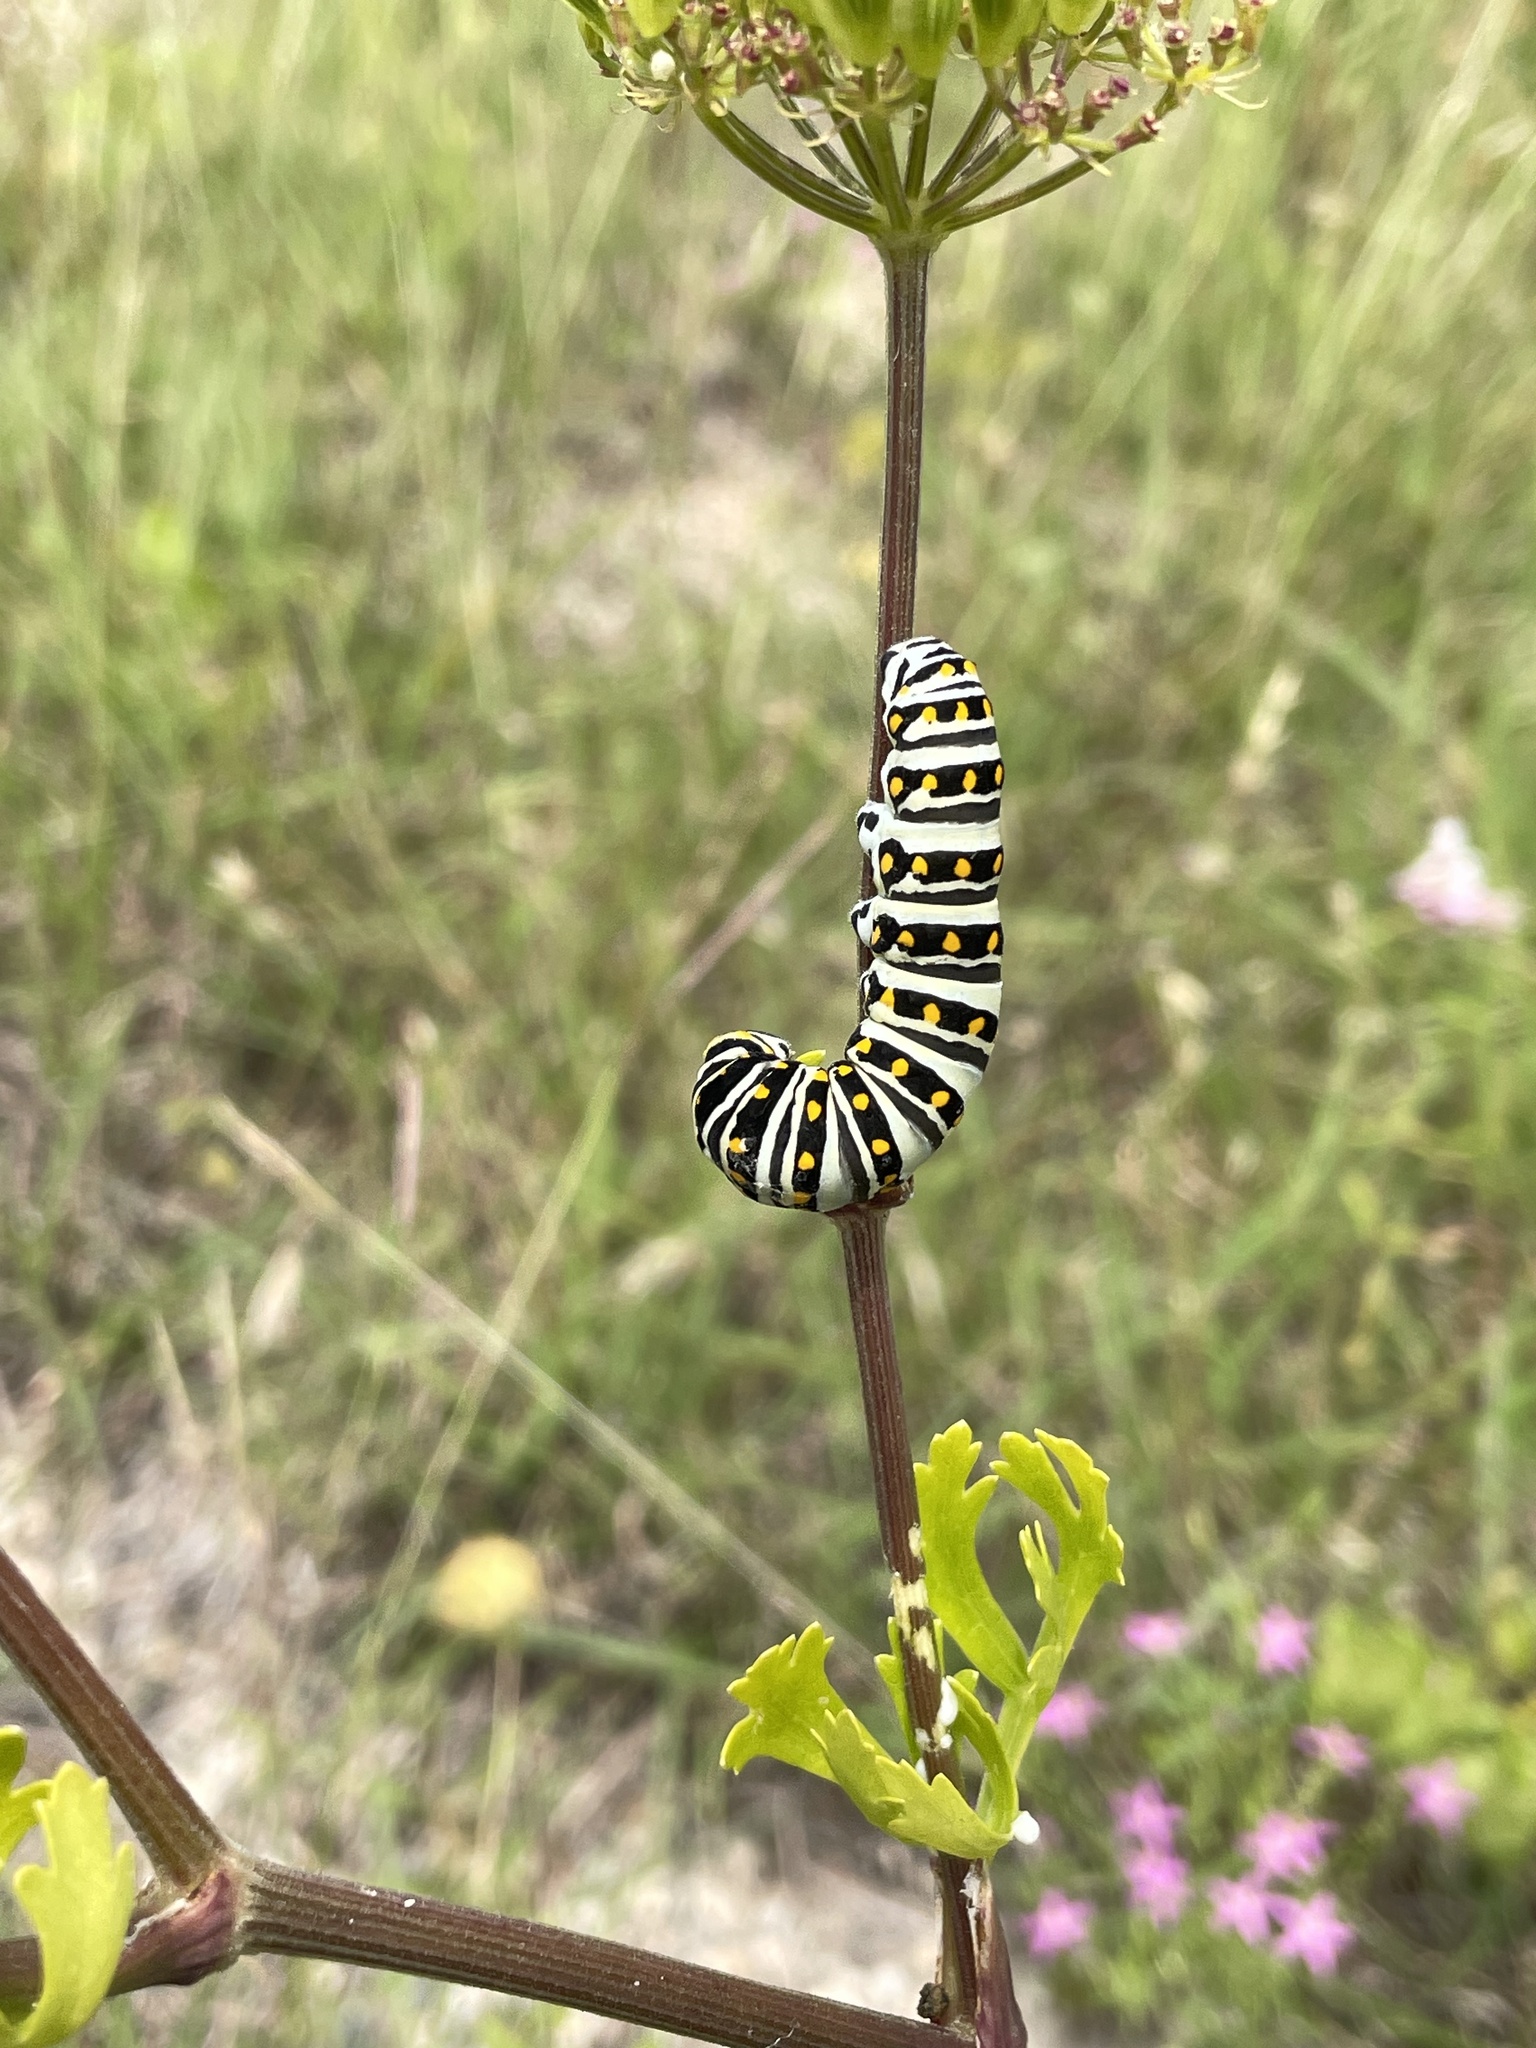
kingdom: Animalia
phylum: Arthropoda
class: Insecta
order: Lepidoptera
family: Papilionidae
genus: Papilio
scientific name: Papilio polyxenes
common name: Black swallowtail
